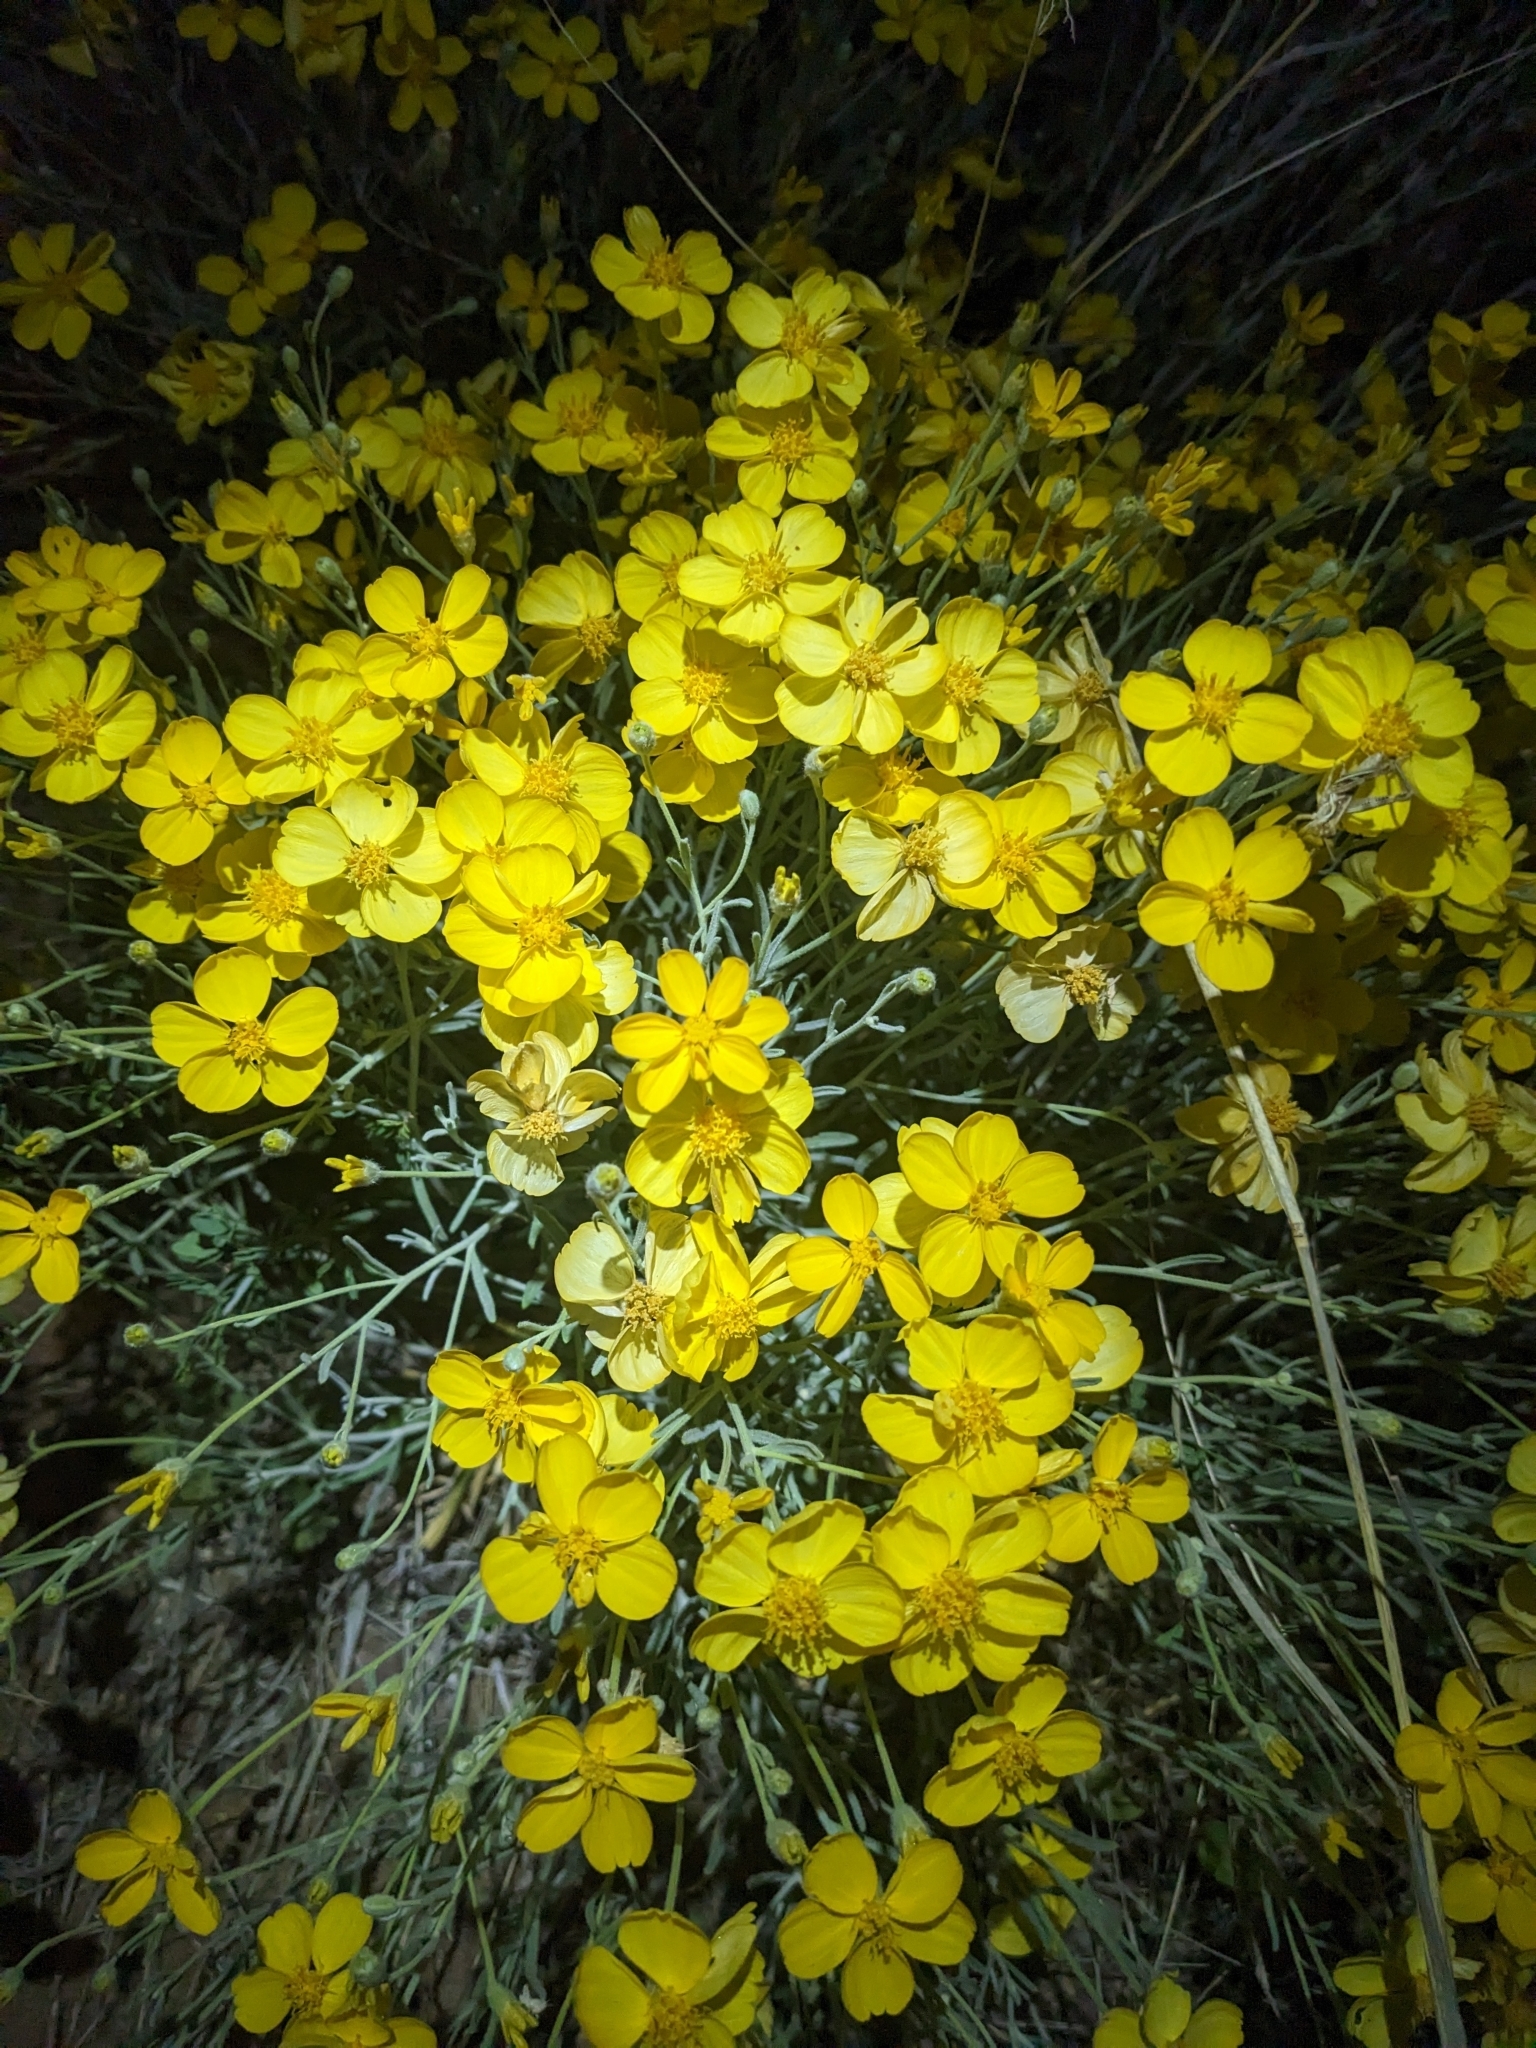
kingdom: Plantae
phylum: Tracheophyta
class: Magnoliopsida
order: Asterales
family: Asteraceae
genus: Psilostrophe
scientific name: Psilostrophe cooperi
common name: White-stem paper-flower
